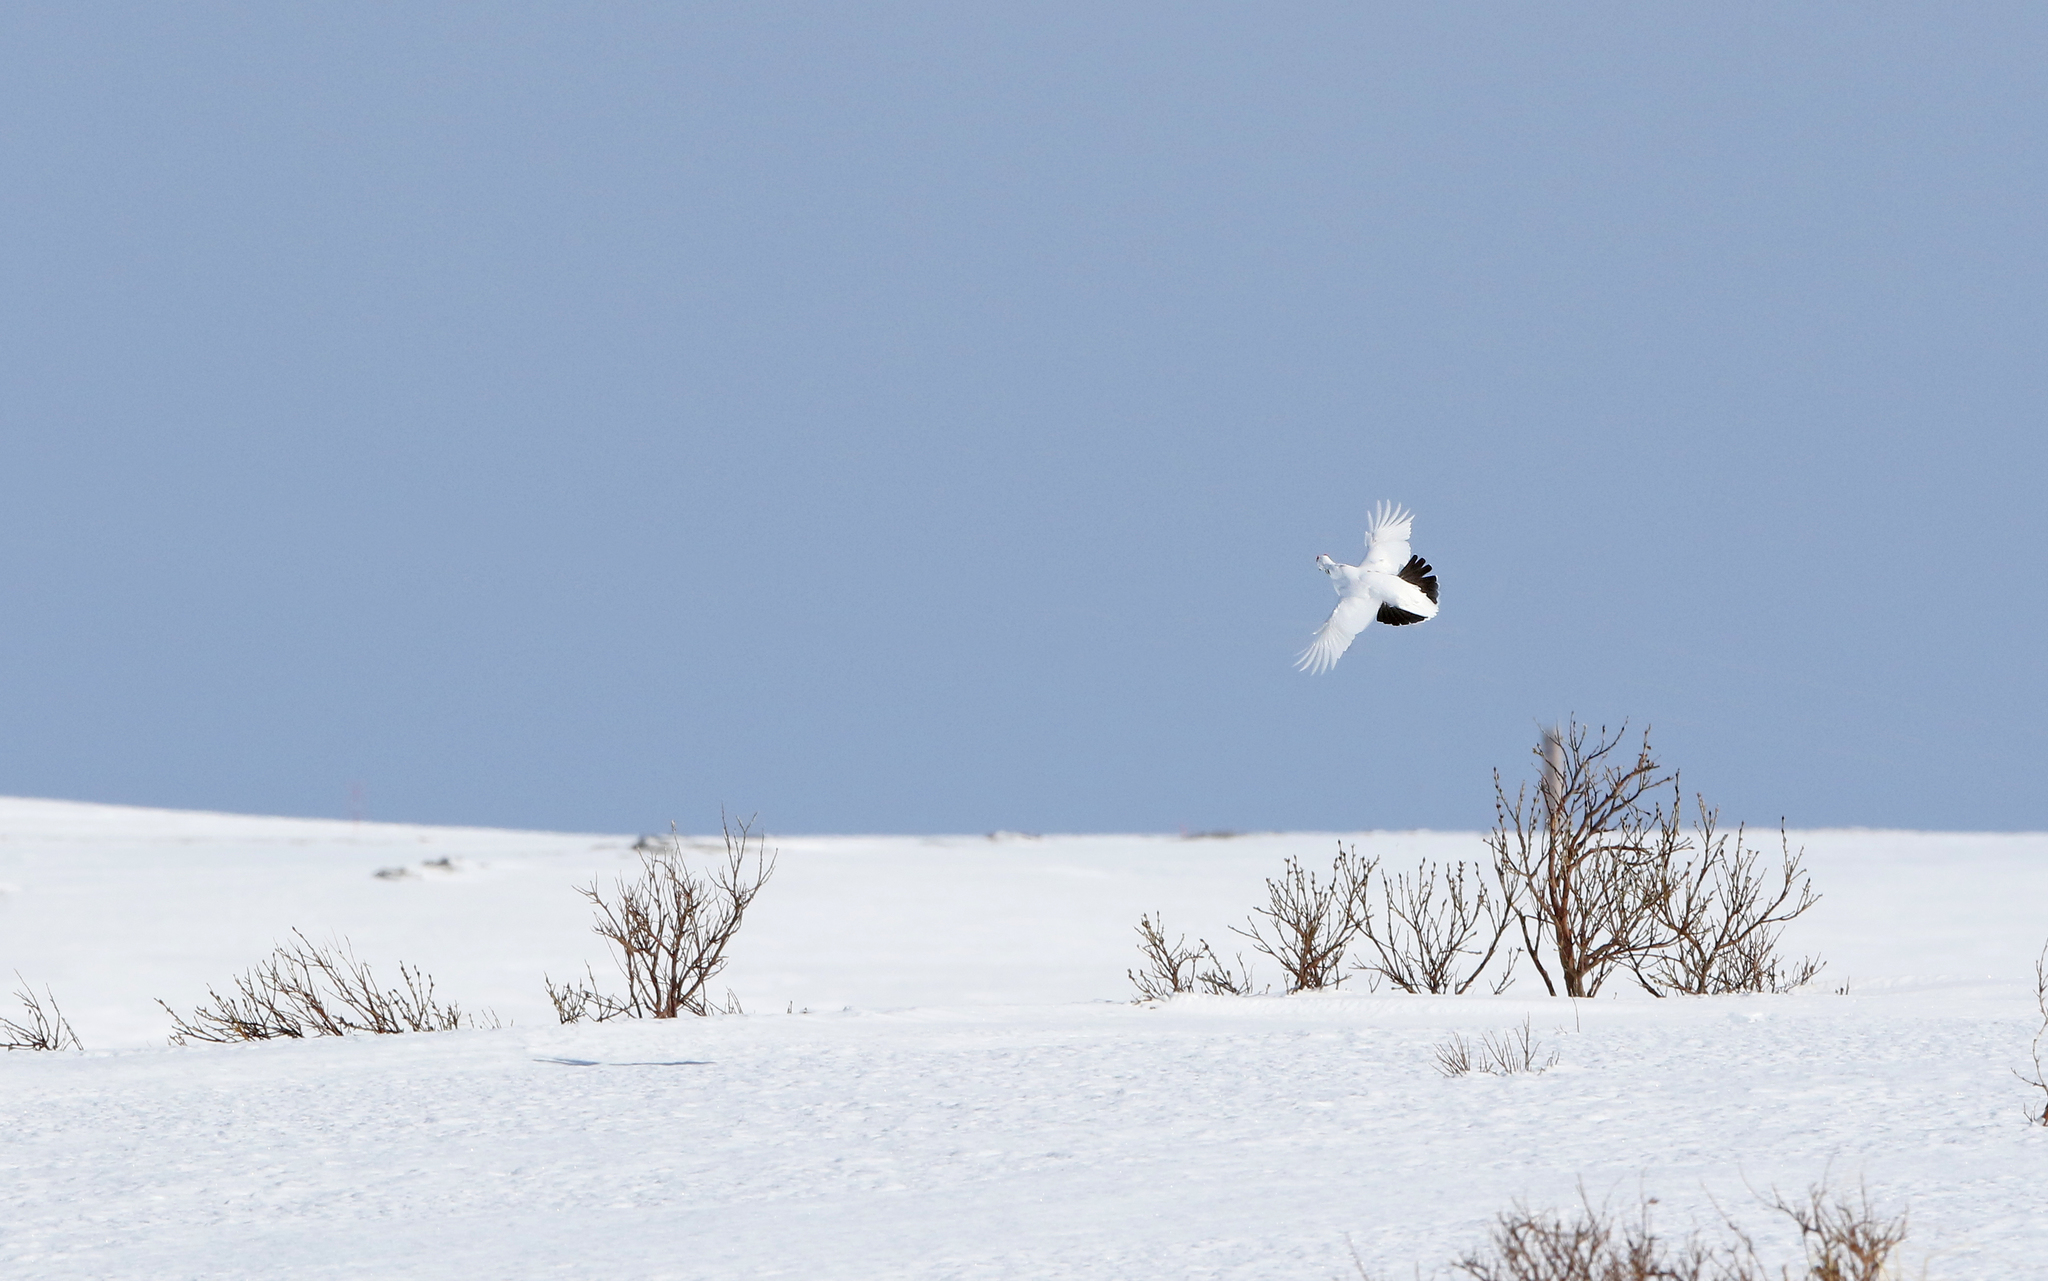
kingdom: Animalia
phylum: Chordata
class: Aves
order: Galliformes
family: Phasianidae
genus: Lagopus
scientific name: Lagopus lagopus
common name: Willow ptarmigan
